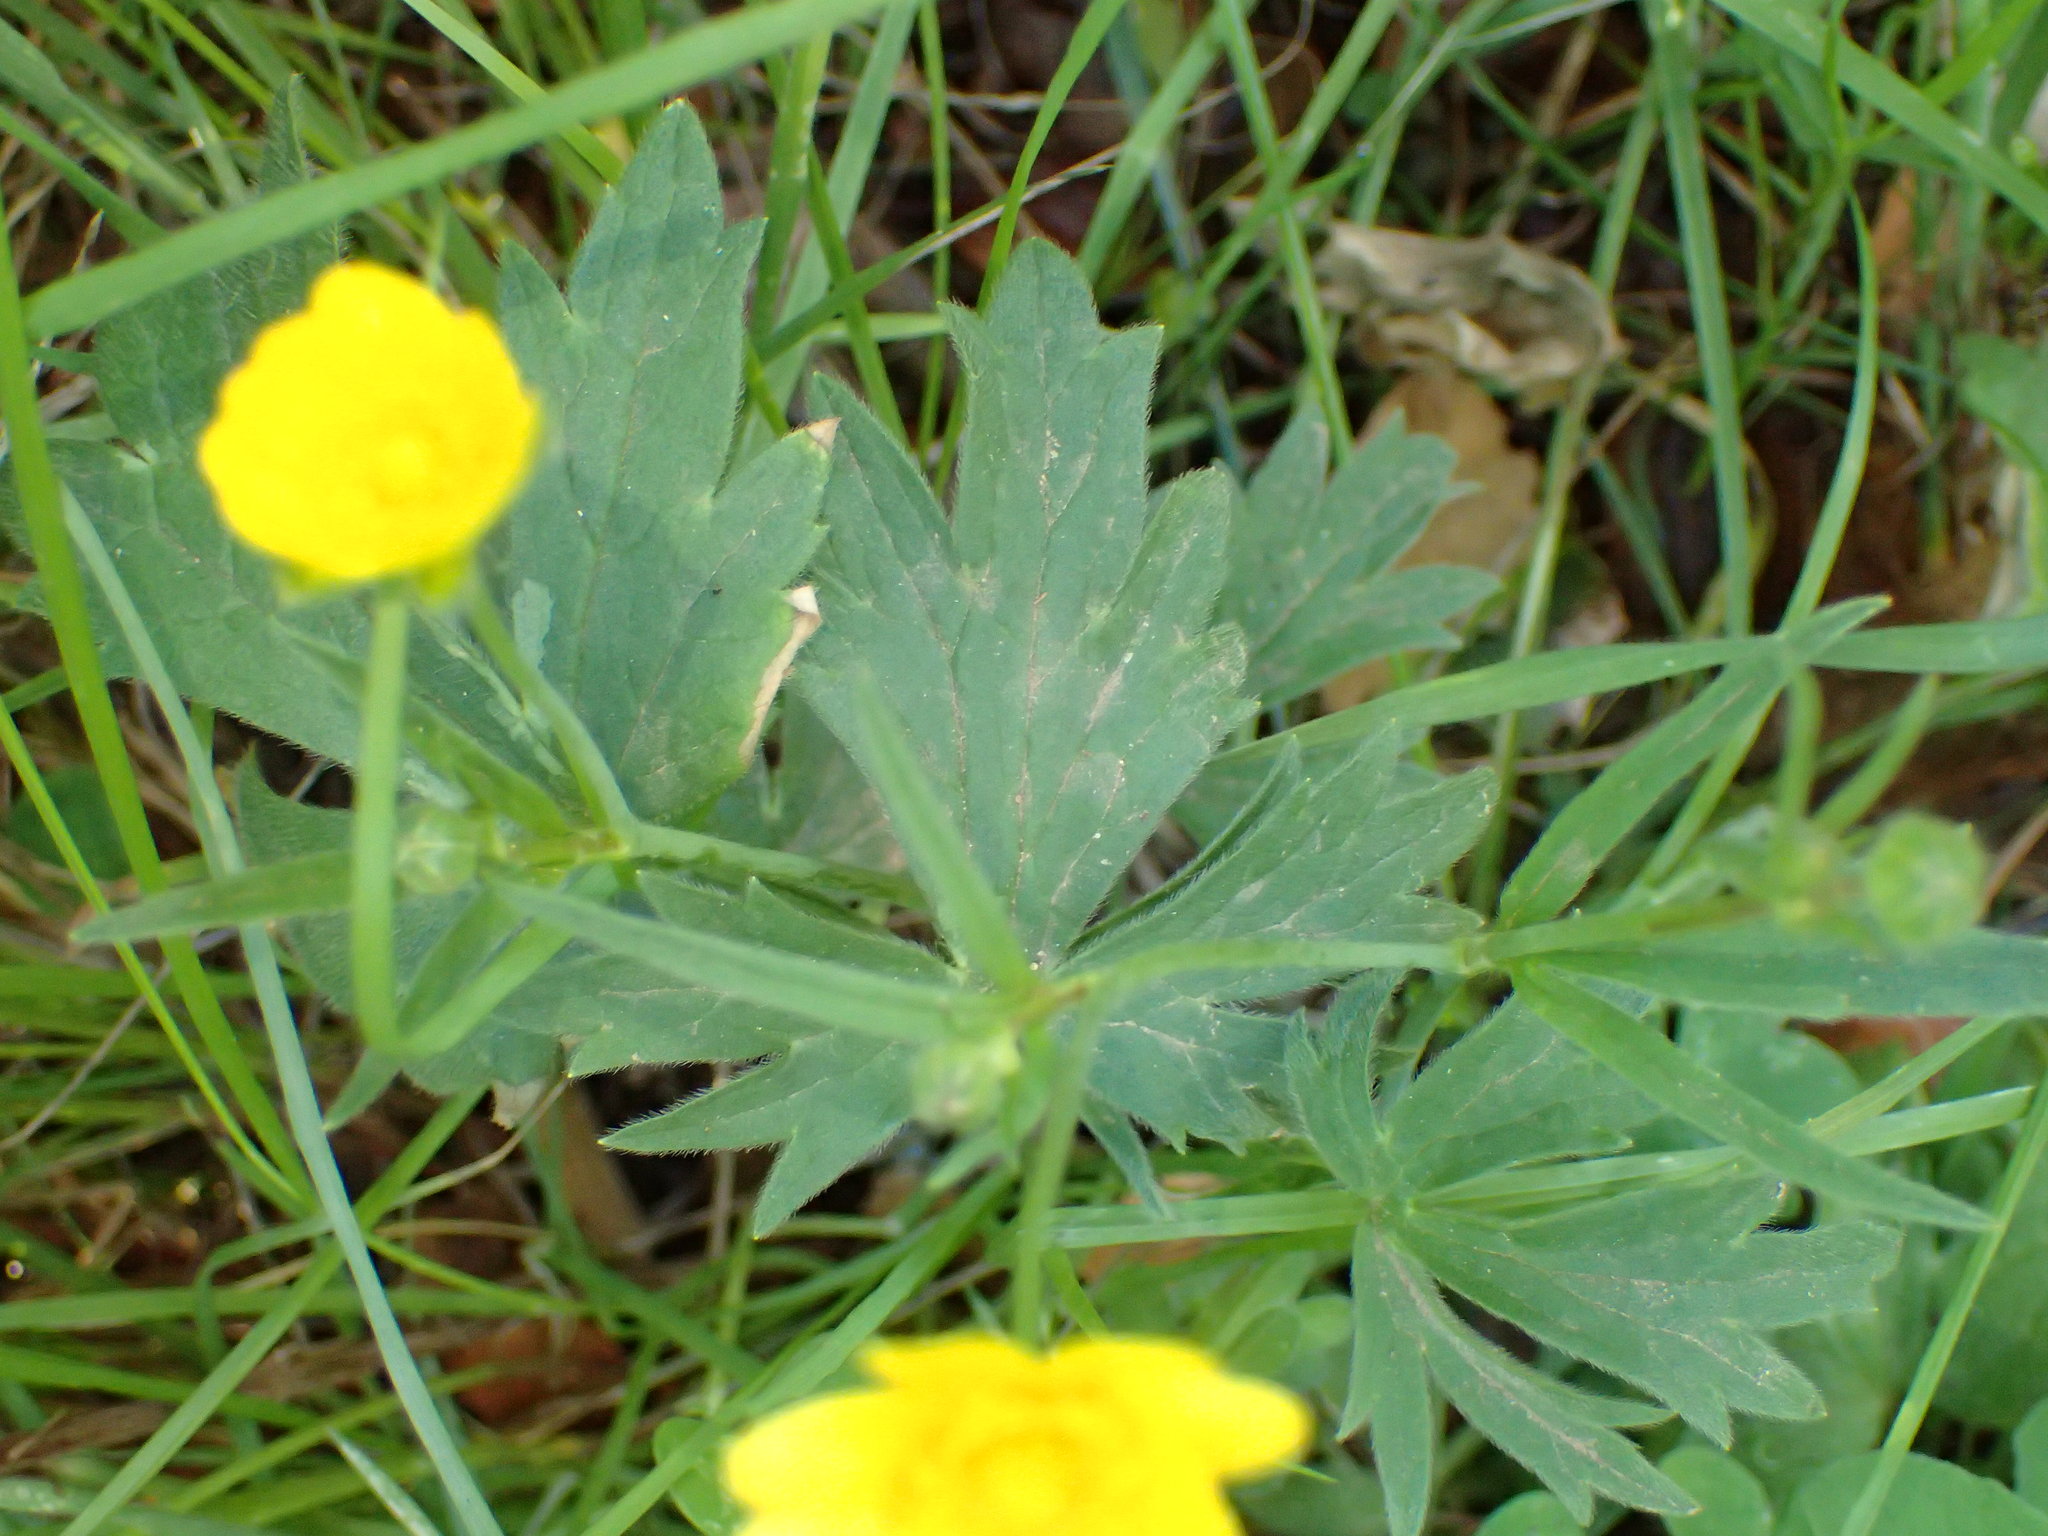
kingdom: Plantae
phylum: Tracheophyta
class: Magnoliopsida
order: Ranunculales
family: Ranunculaceae
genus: Ranunculus
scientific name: Ranunculus californicus
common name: California buttercup
